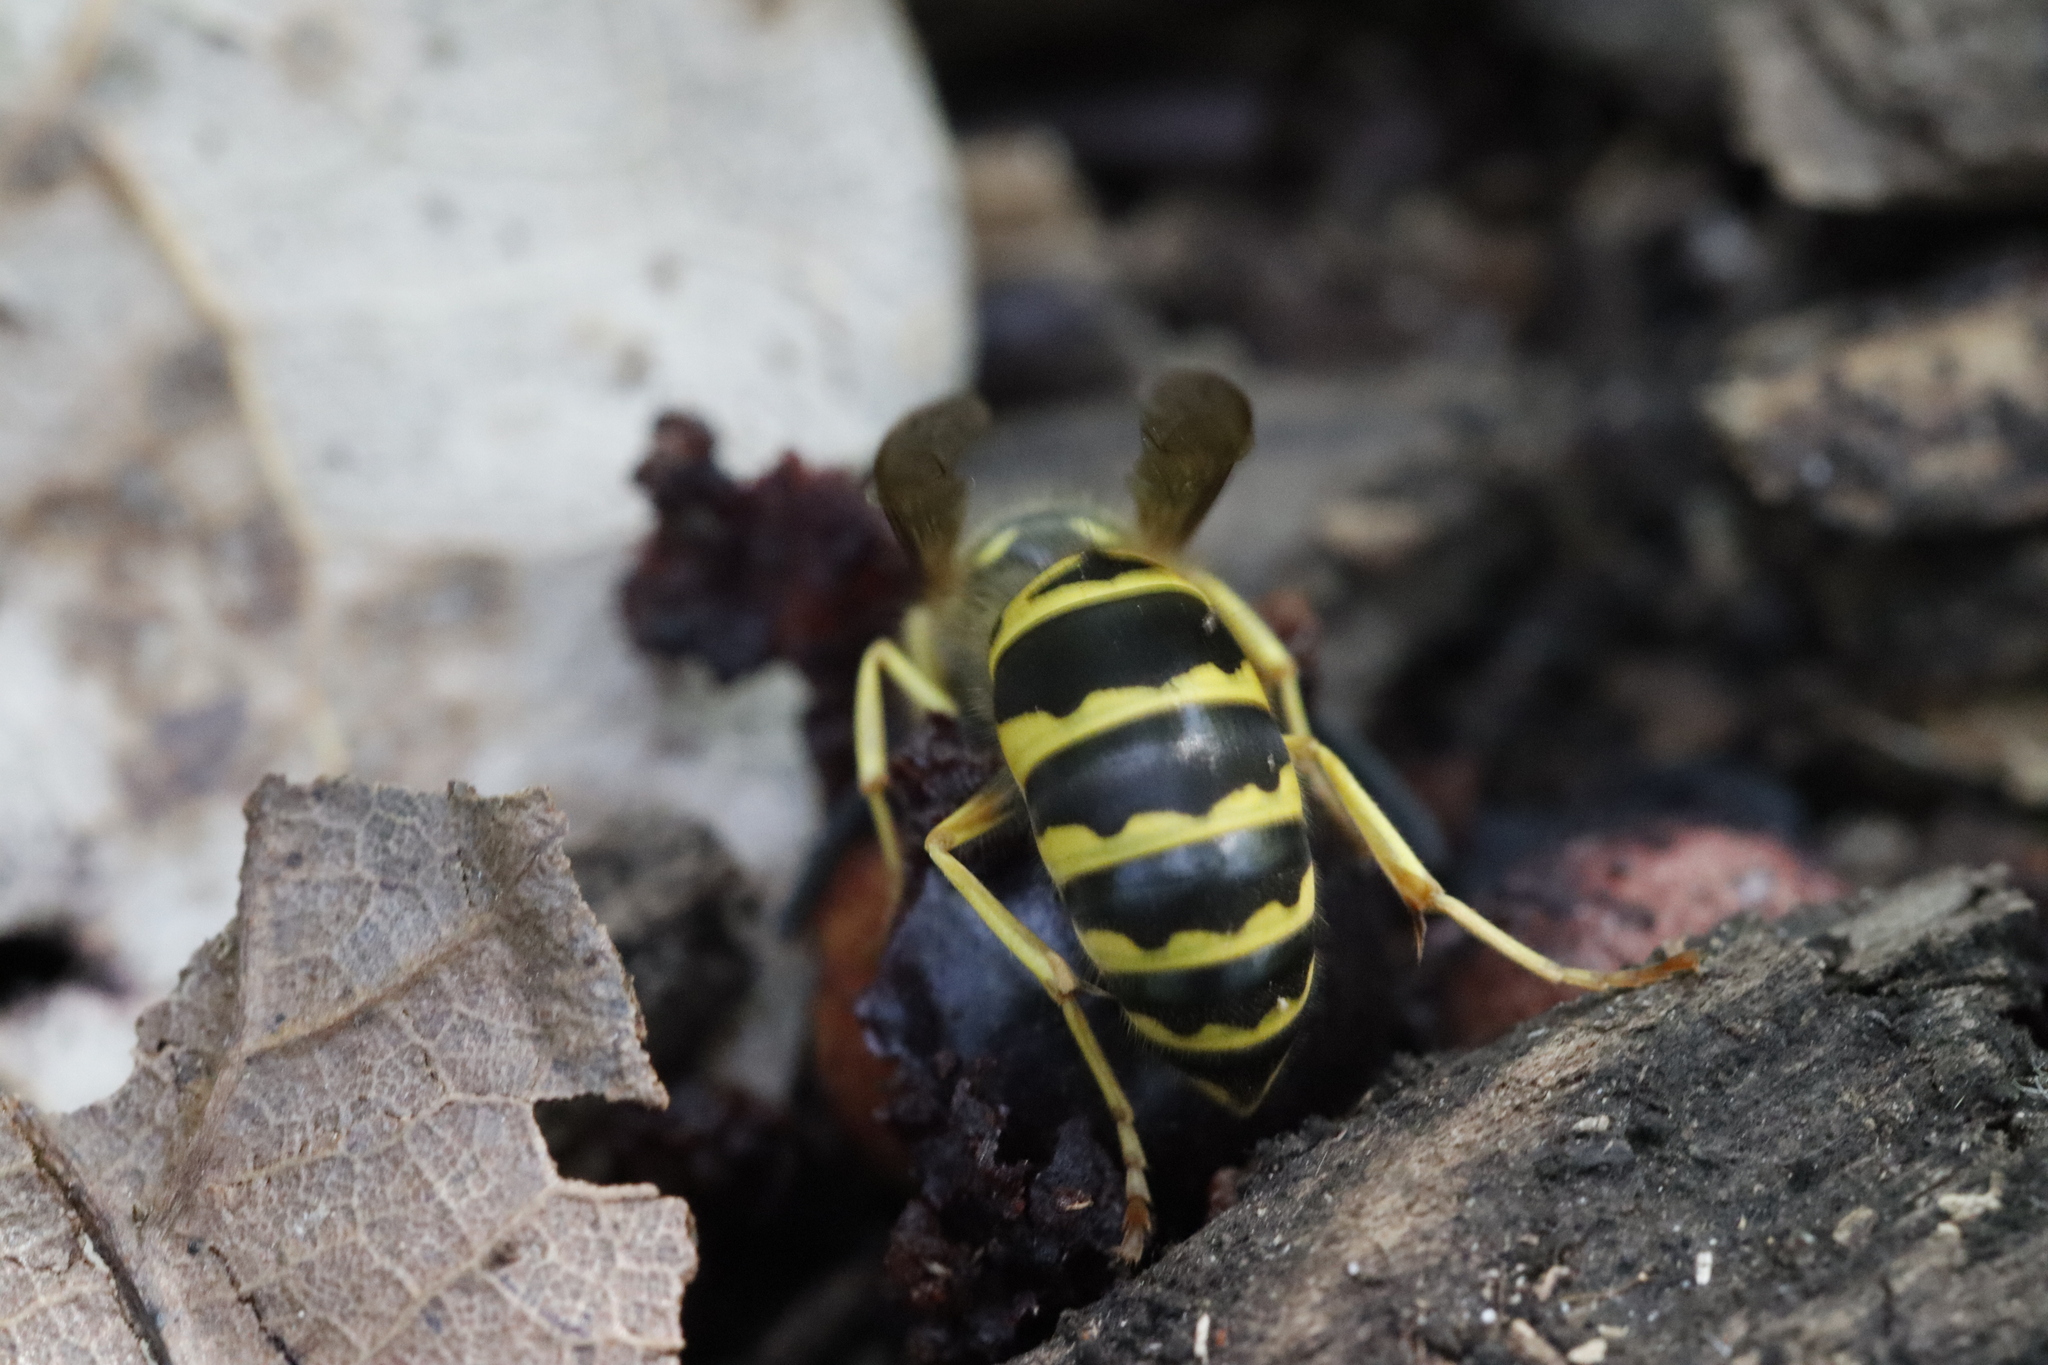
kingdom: Animalia
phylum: Arthropoda
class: Insecta
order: Hymenoptera
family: Vespidae
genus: Vespula
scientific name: Vespula maculifrons
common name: Eastern yellowjacket
